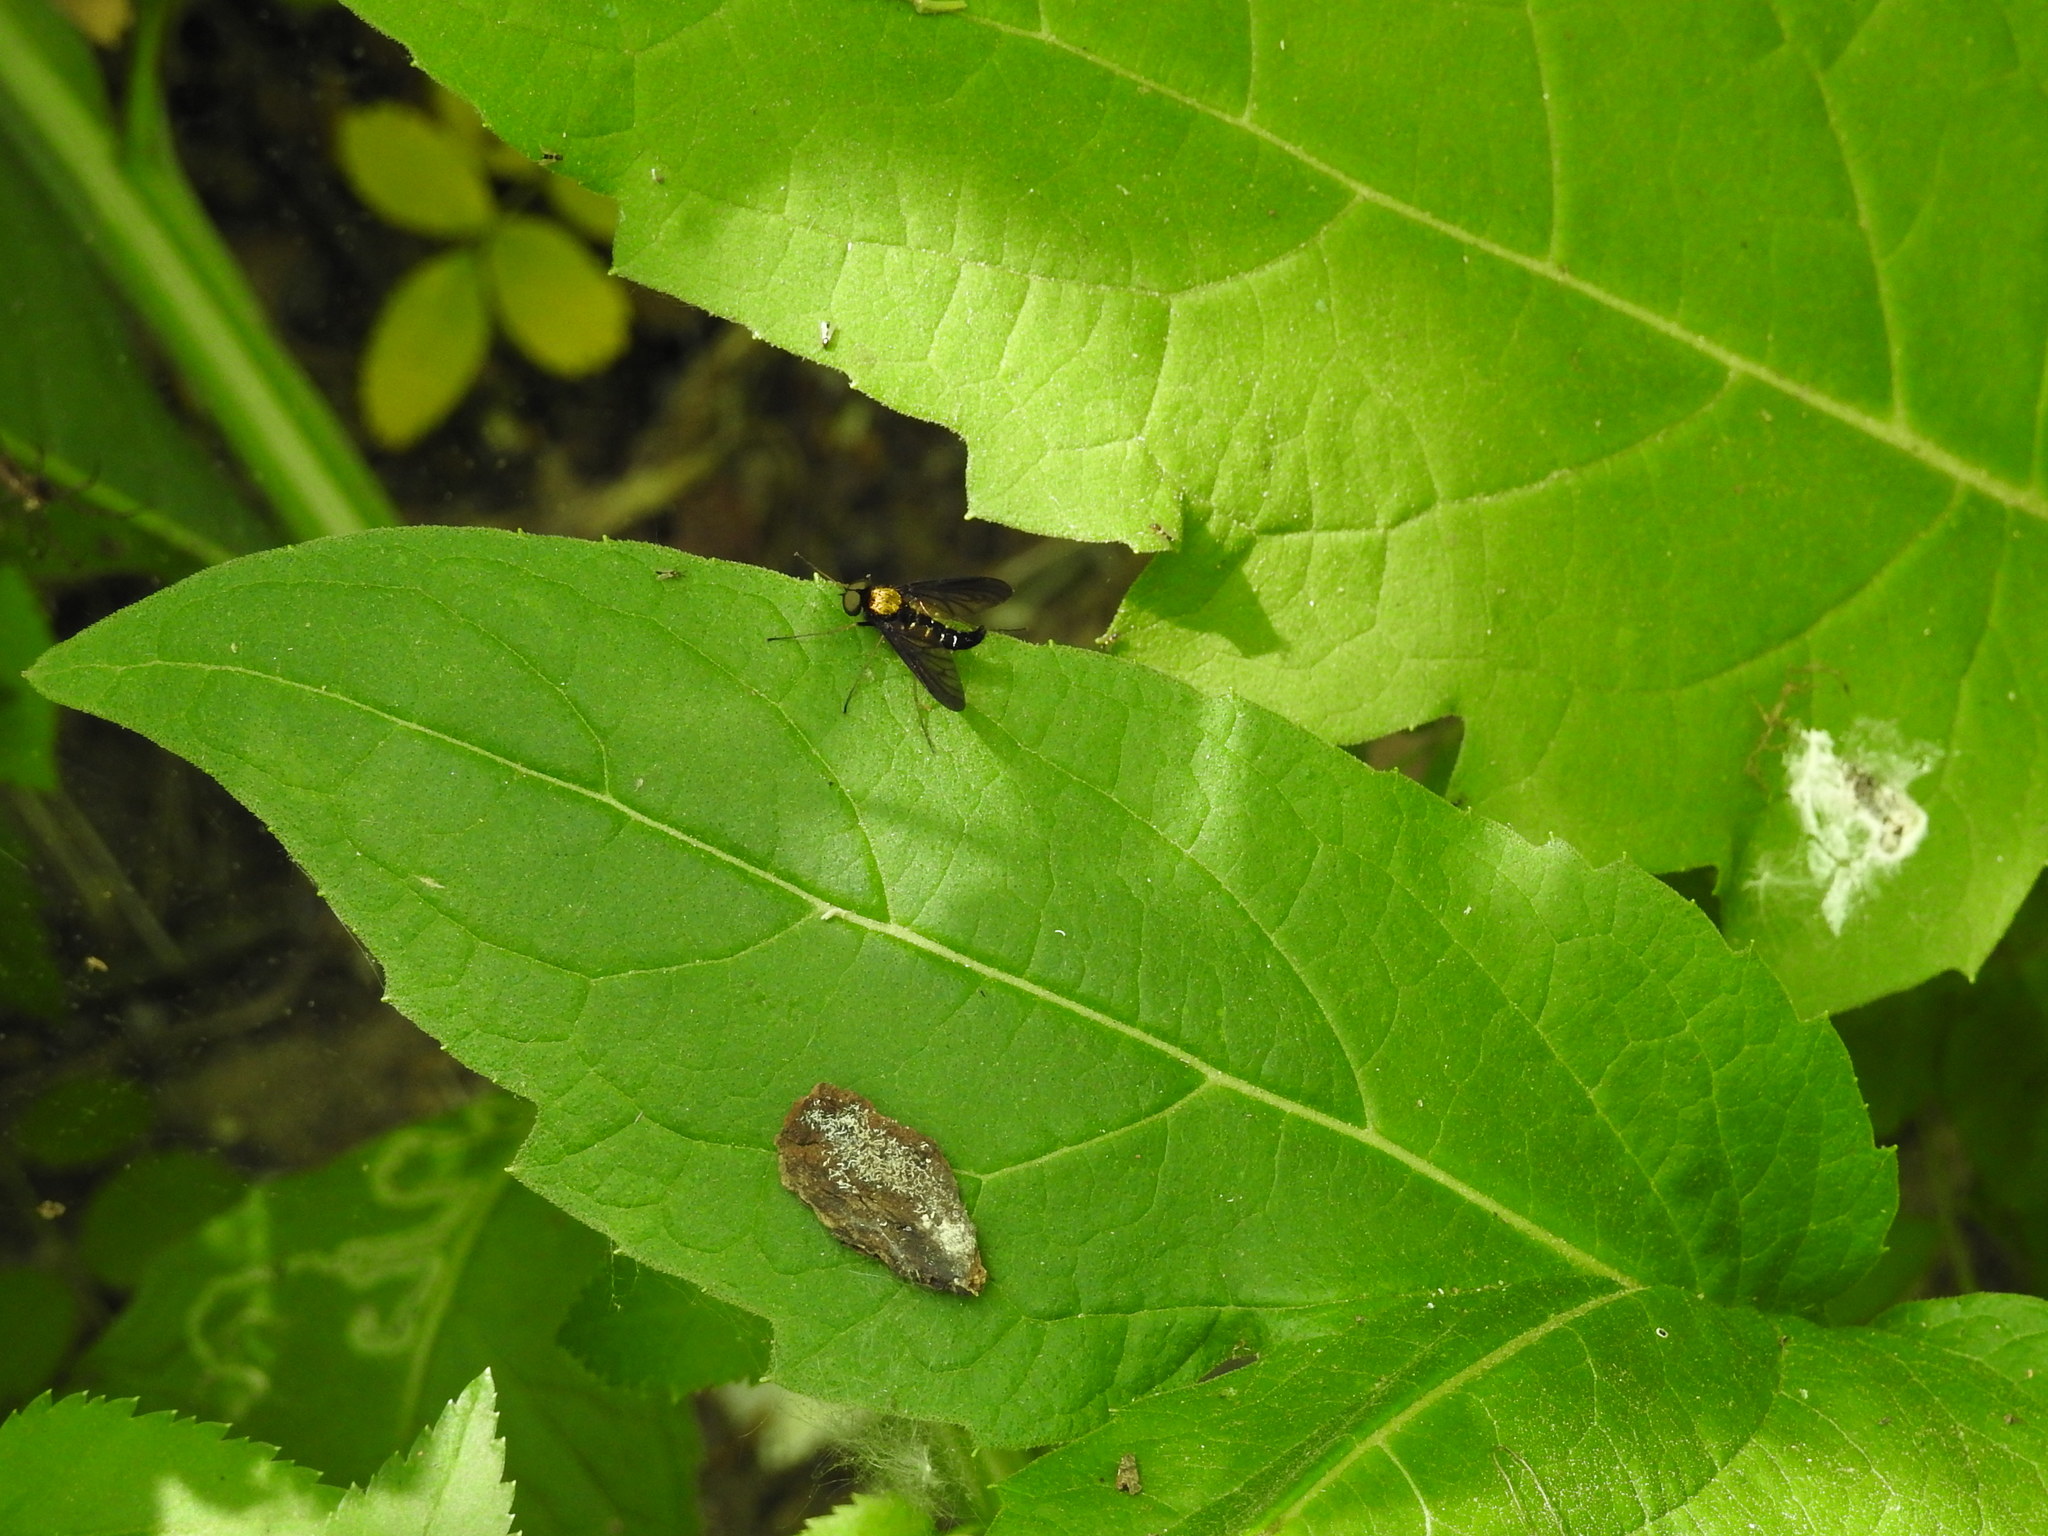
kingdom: Animalia
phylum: Arthropoda
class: Insecta
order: Diptera
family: Rhagionidae
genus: Chrysopilus
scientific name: Chrysopilus thoracicus
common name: Golden-backed snipe fly
